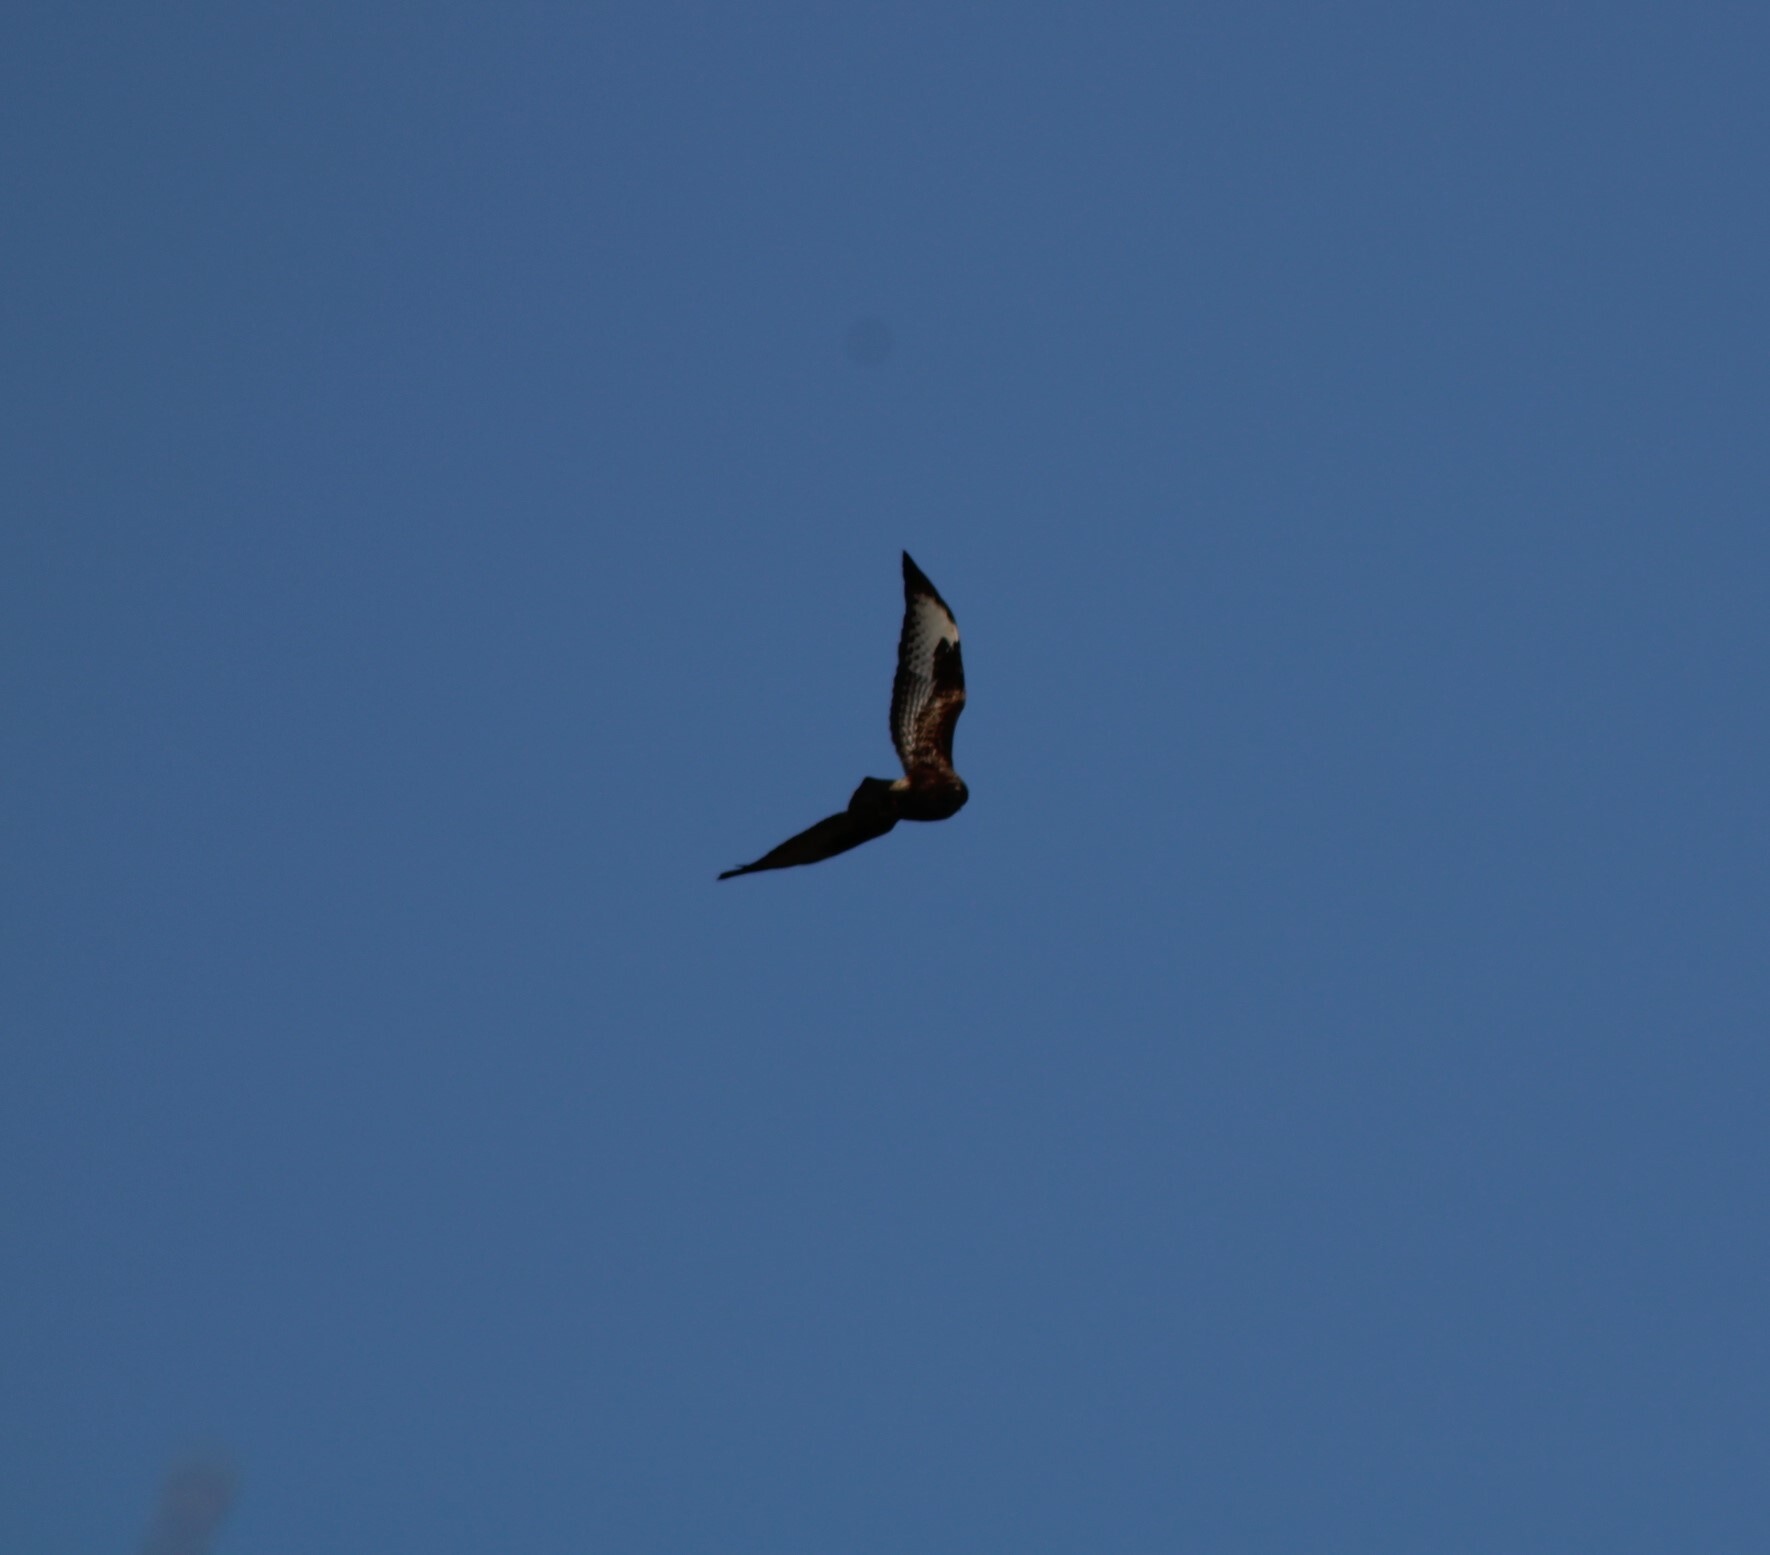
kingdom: Animalia
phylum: Chordata
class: Aves
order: Accipitriformes
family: Accipitridae
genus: Buteo
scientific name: Buteo buteo
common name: Common buzzard
